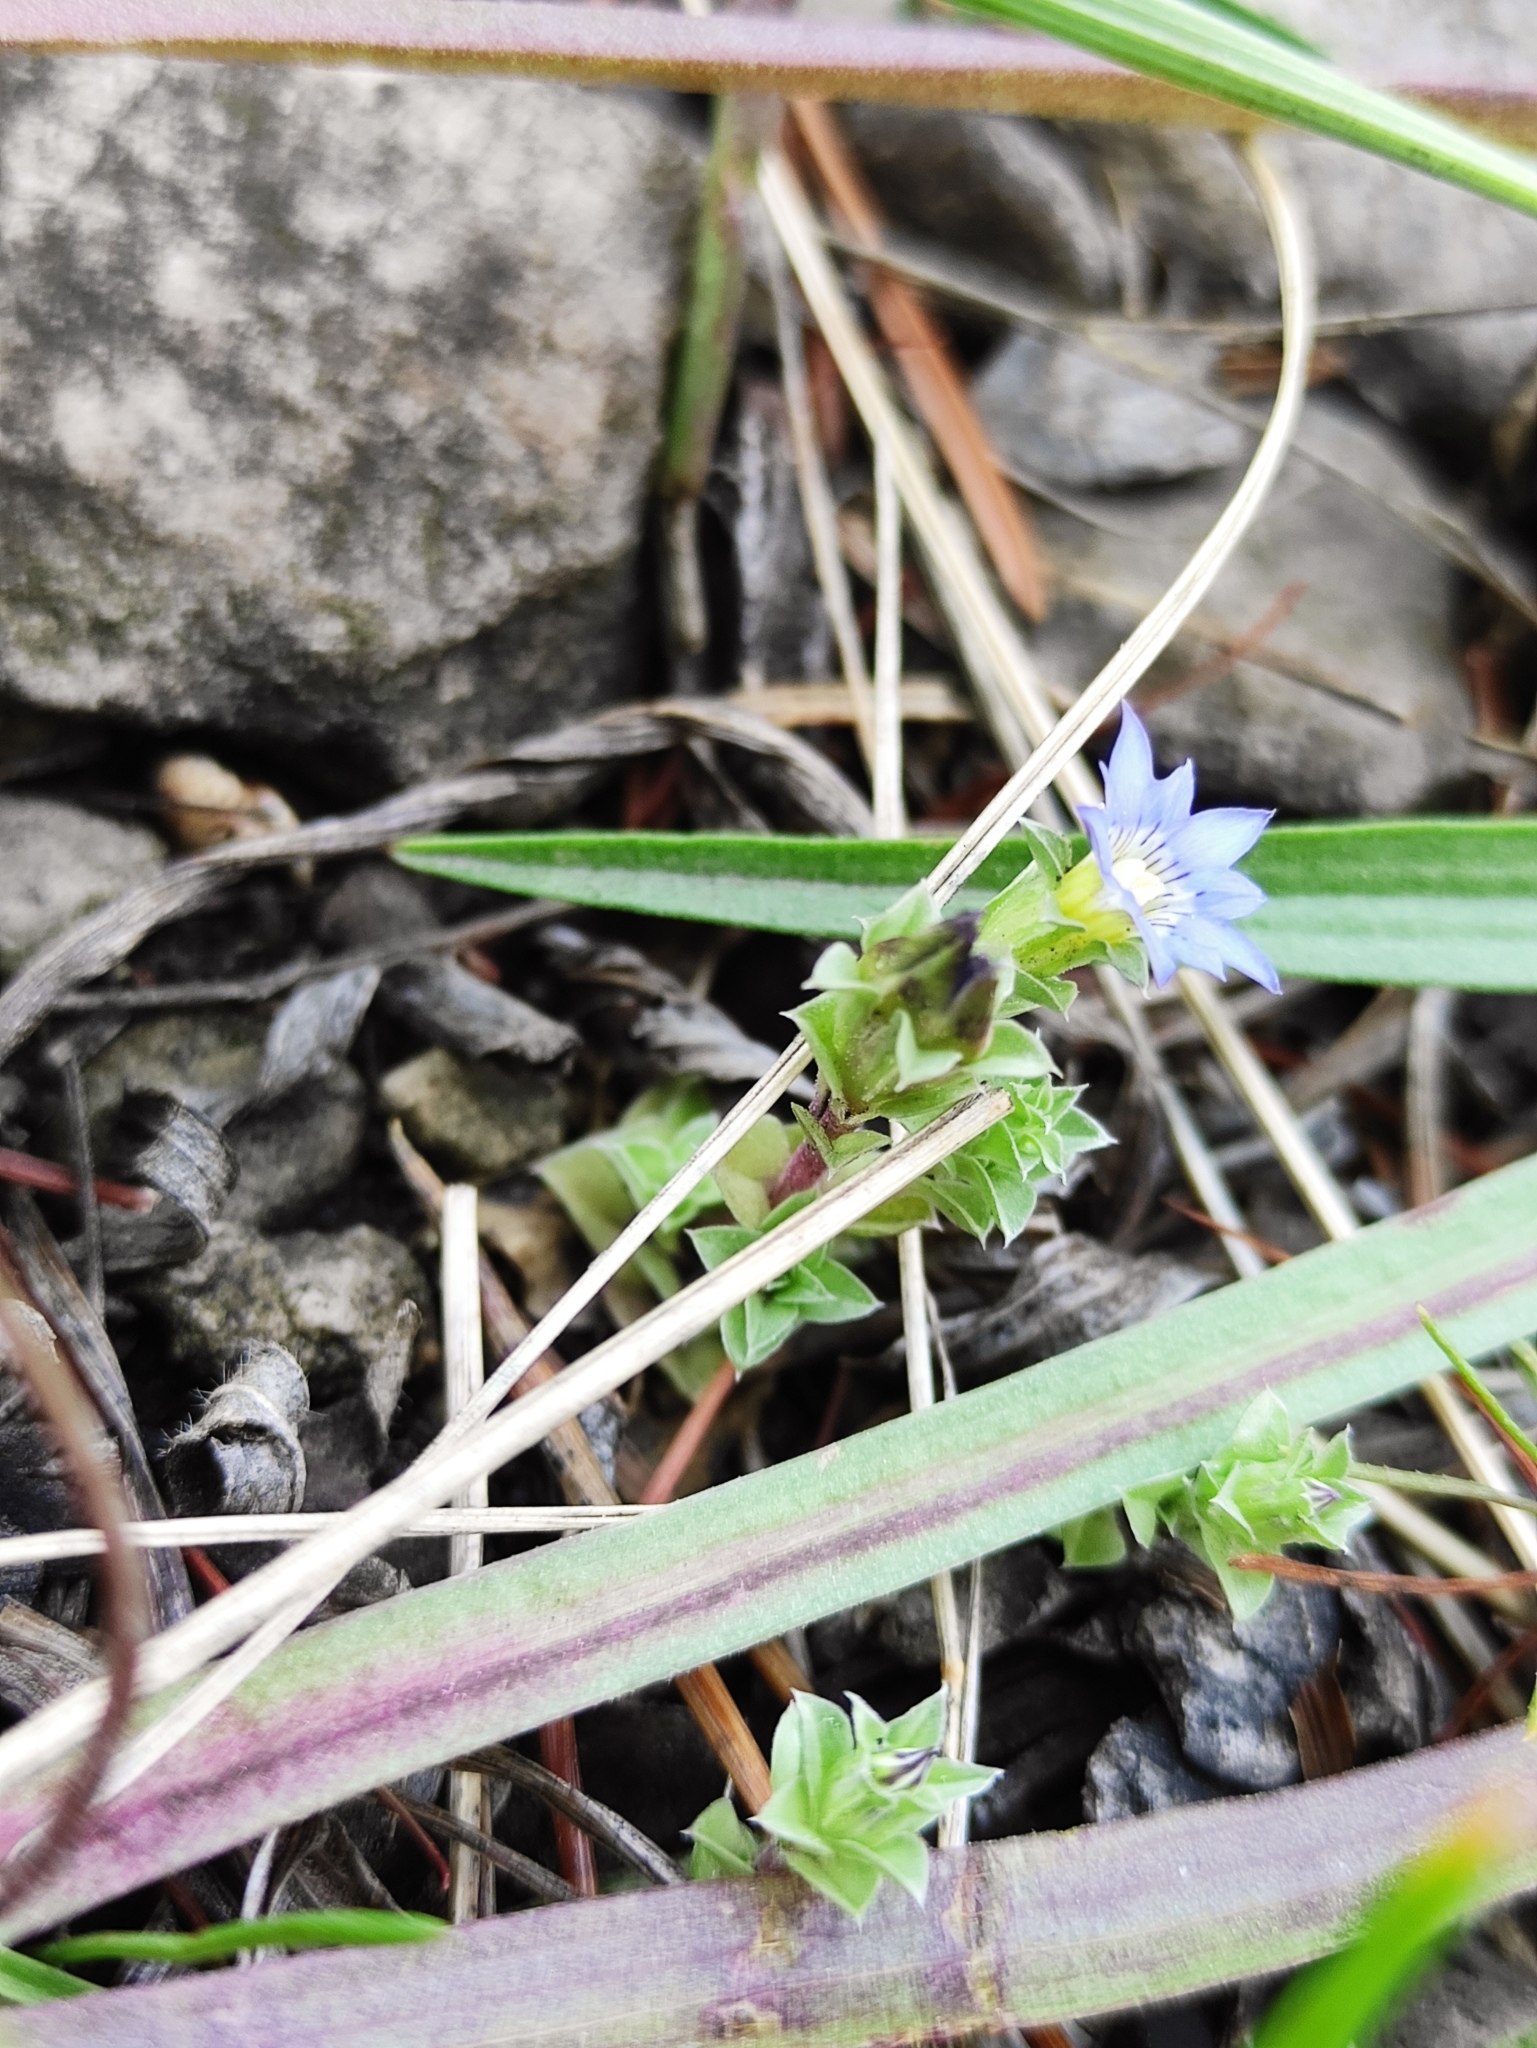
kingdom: Plantae
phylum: Tracheophyta
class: Magnoliopsida
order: Gentianales
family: Gentianaceae
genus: Gentiana
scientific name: Gentiana squarrosa
